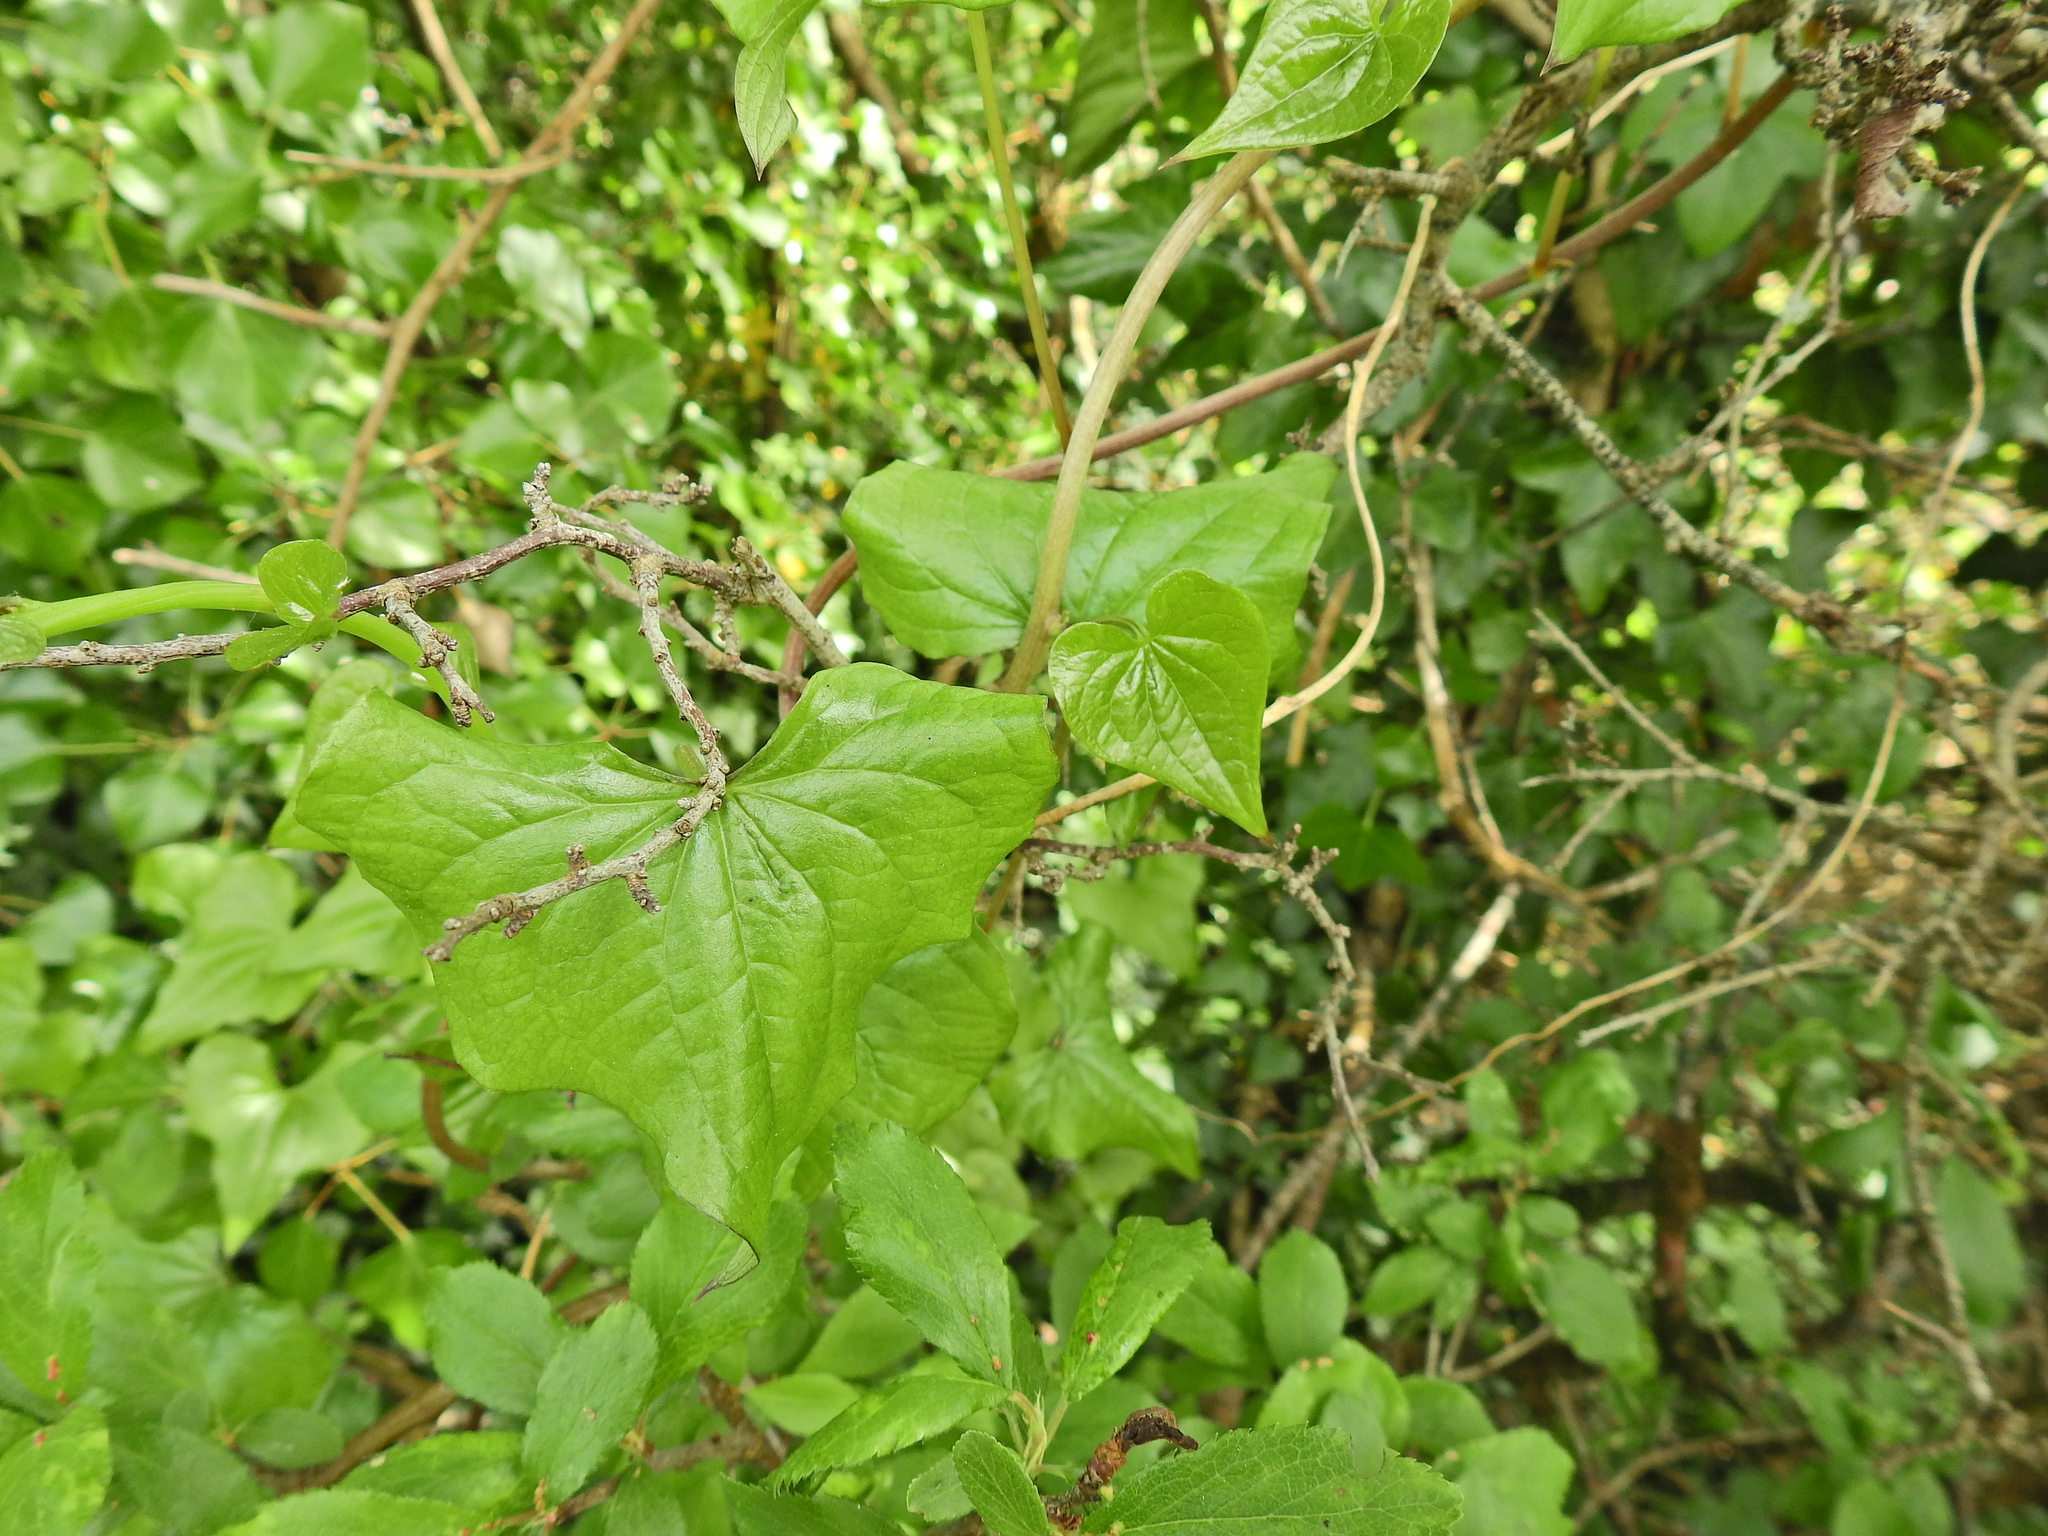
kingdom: Plantae
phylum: Tracheophyta
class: Liliopsida
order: Dioscoreales
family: Dioscoreaceae
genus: Dioscorea
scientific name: Dioscorea communis
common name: Black-bindweed
